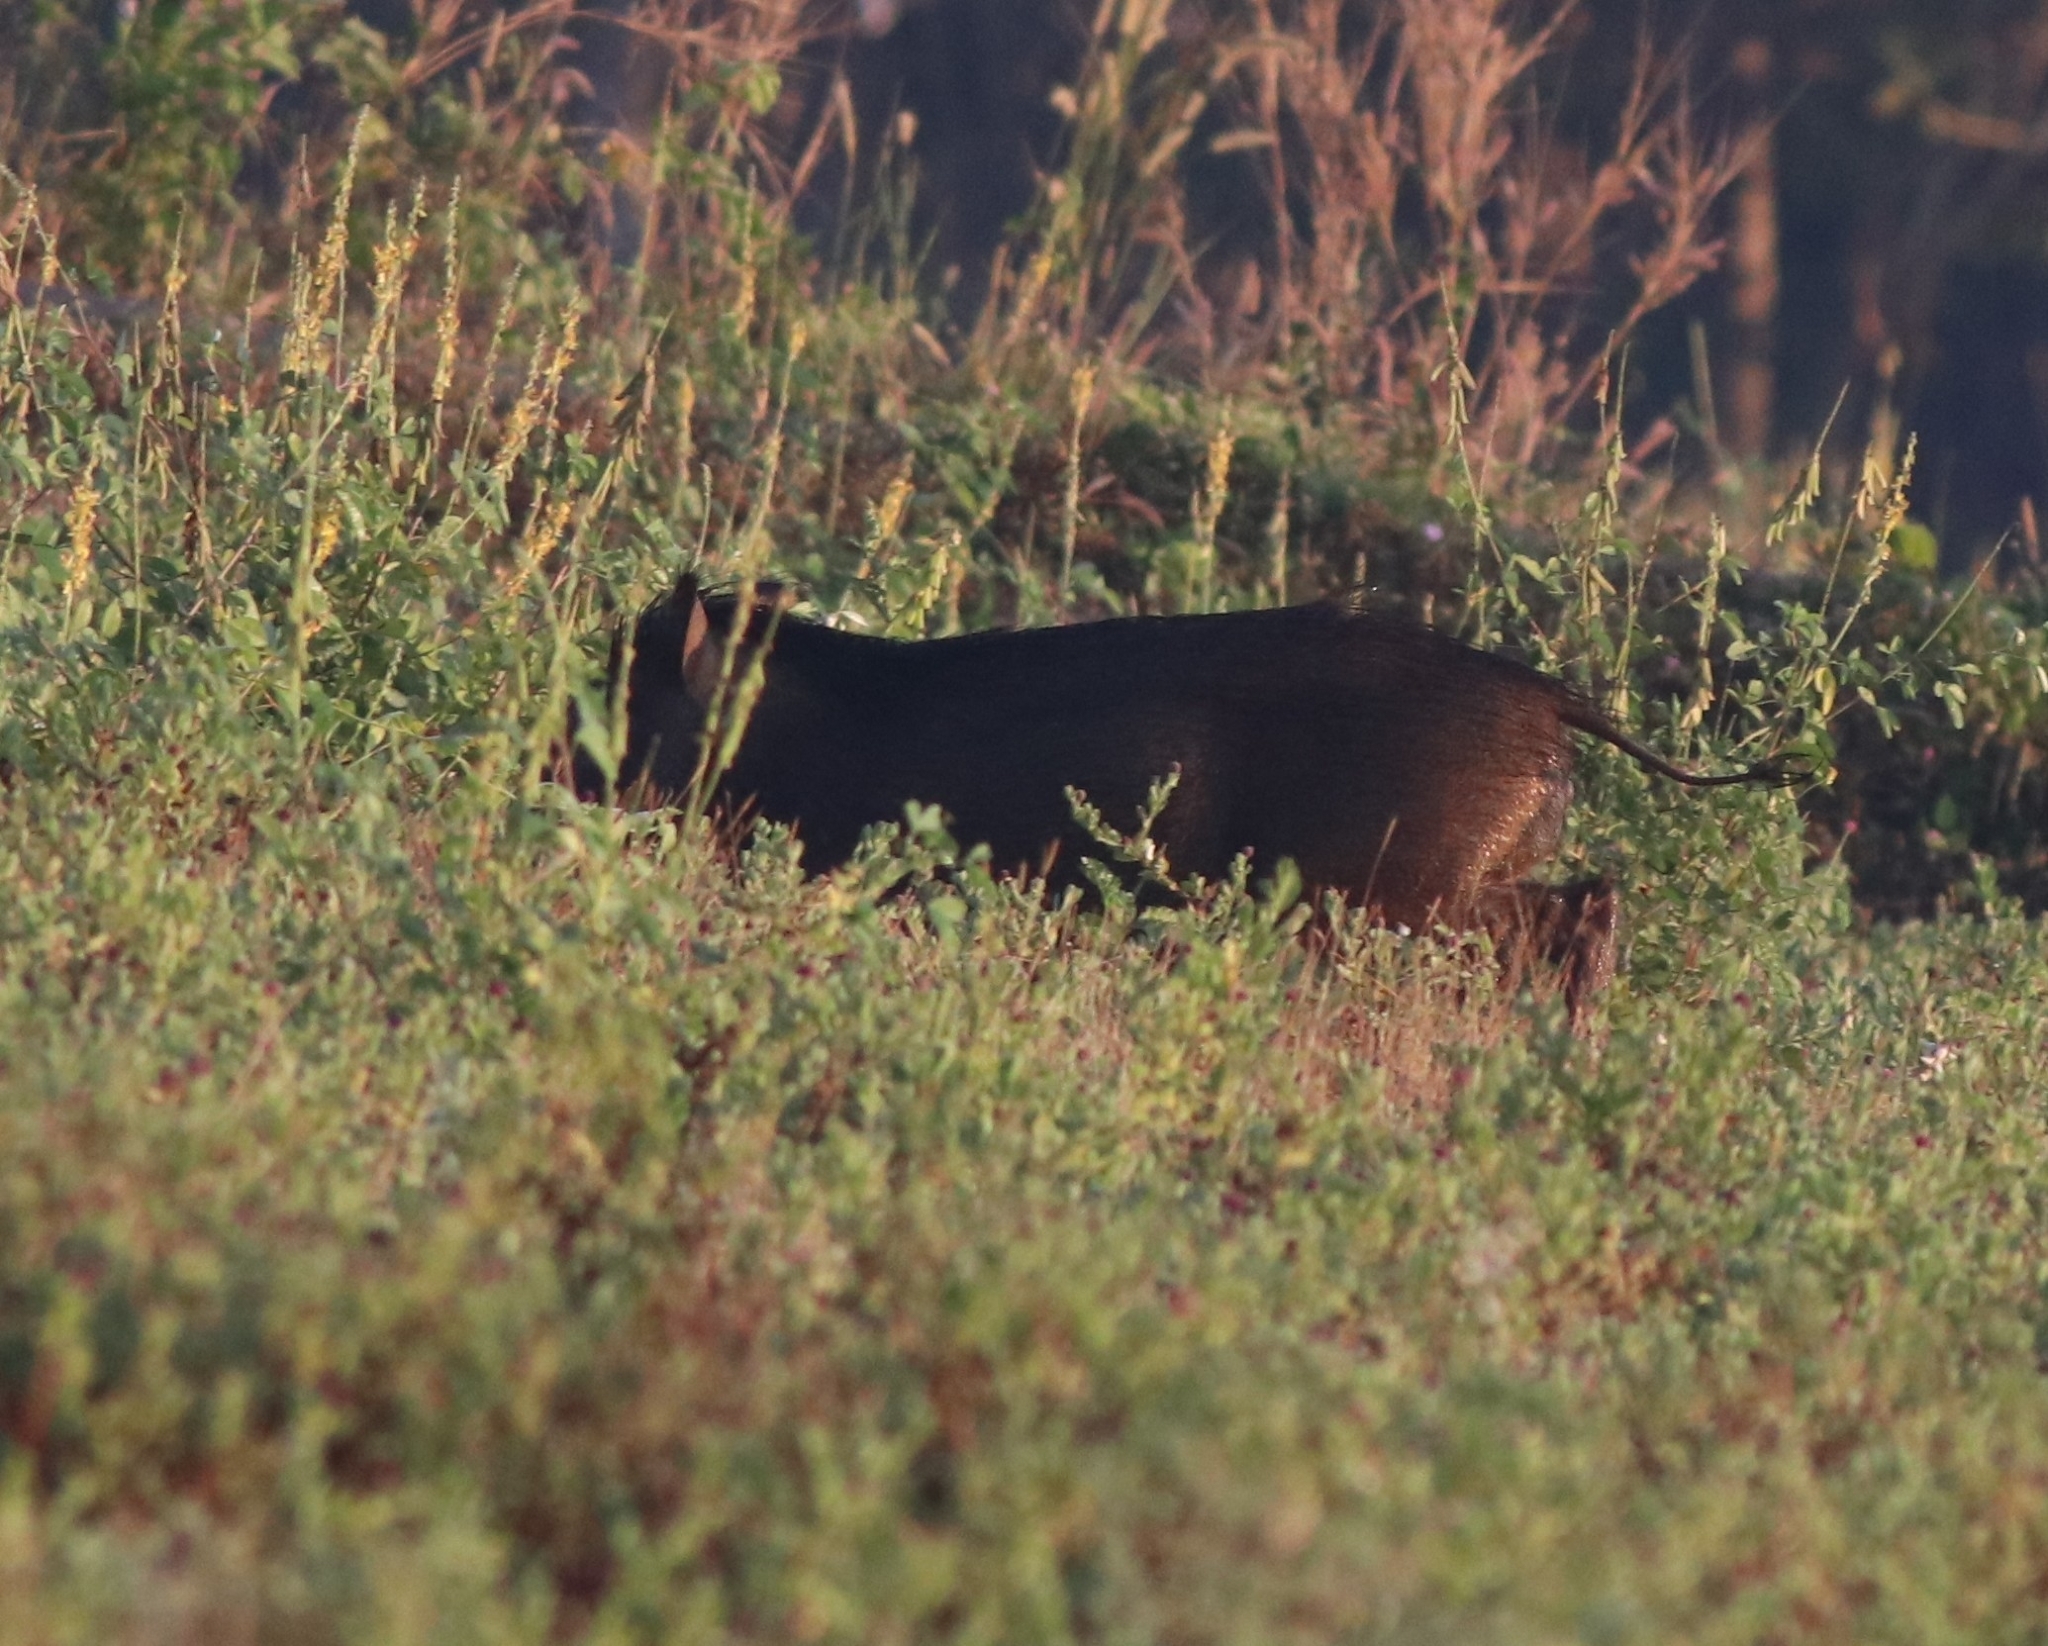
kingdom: Animalia
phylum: Chordata
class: Mammalia
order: Artiodactyla
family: Suidae
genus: Sus
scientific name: Sus scrofa
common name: Wild boar
